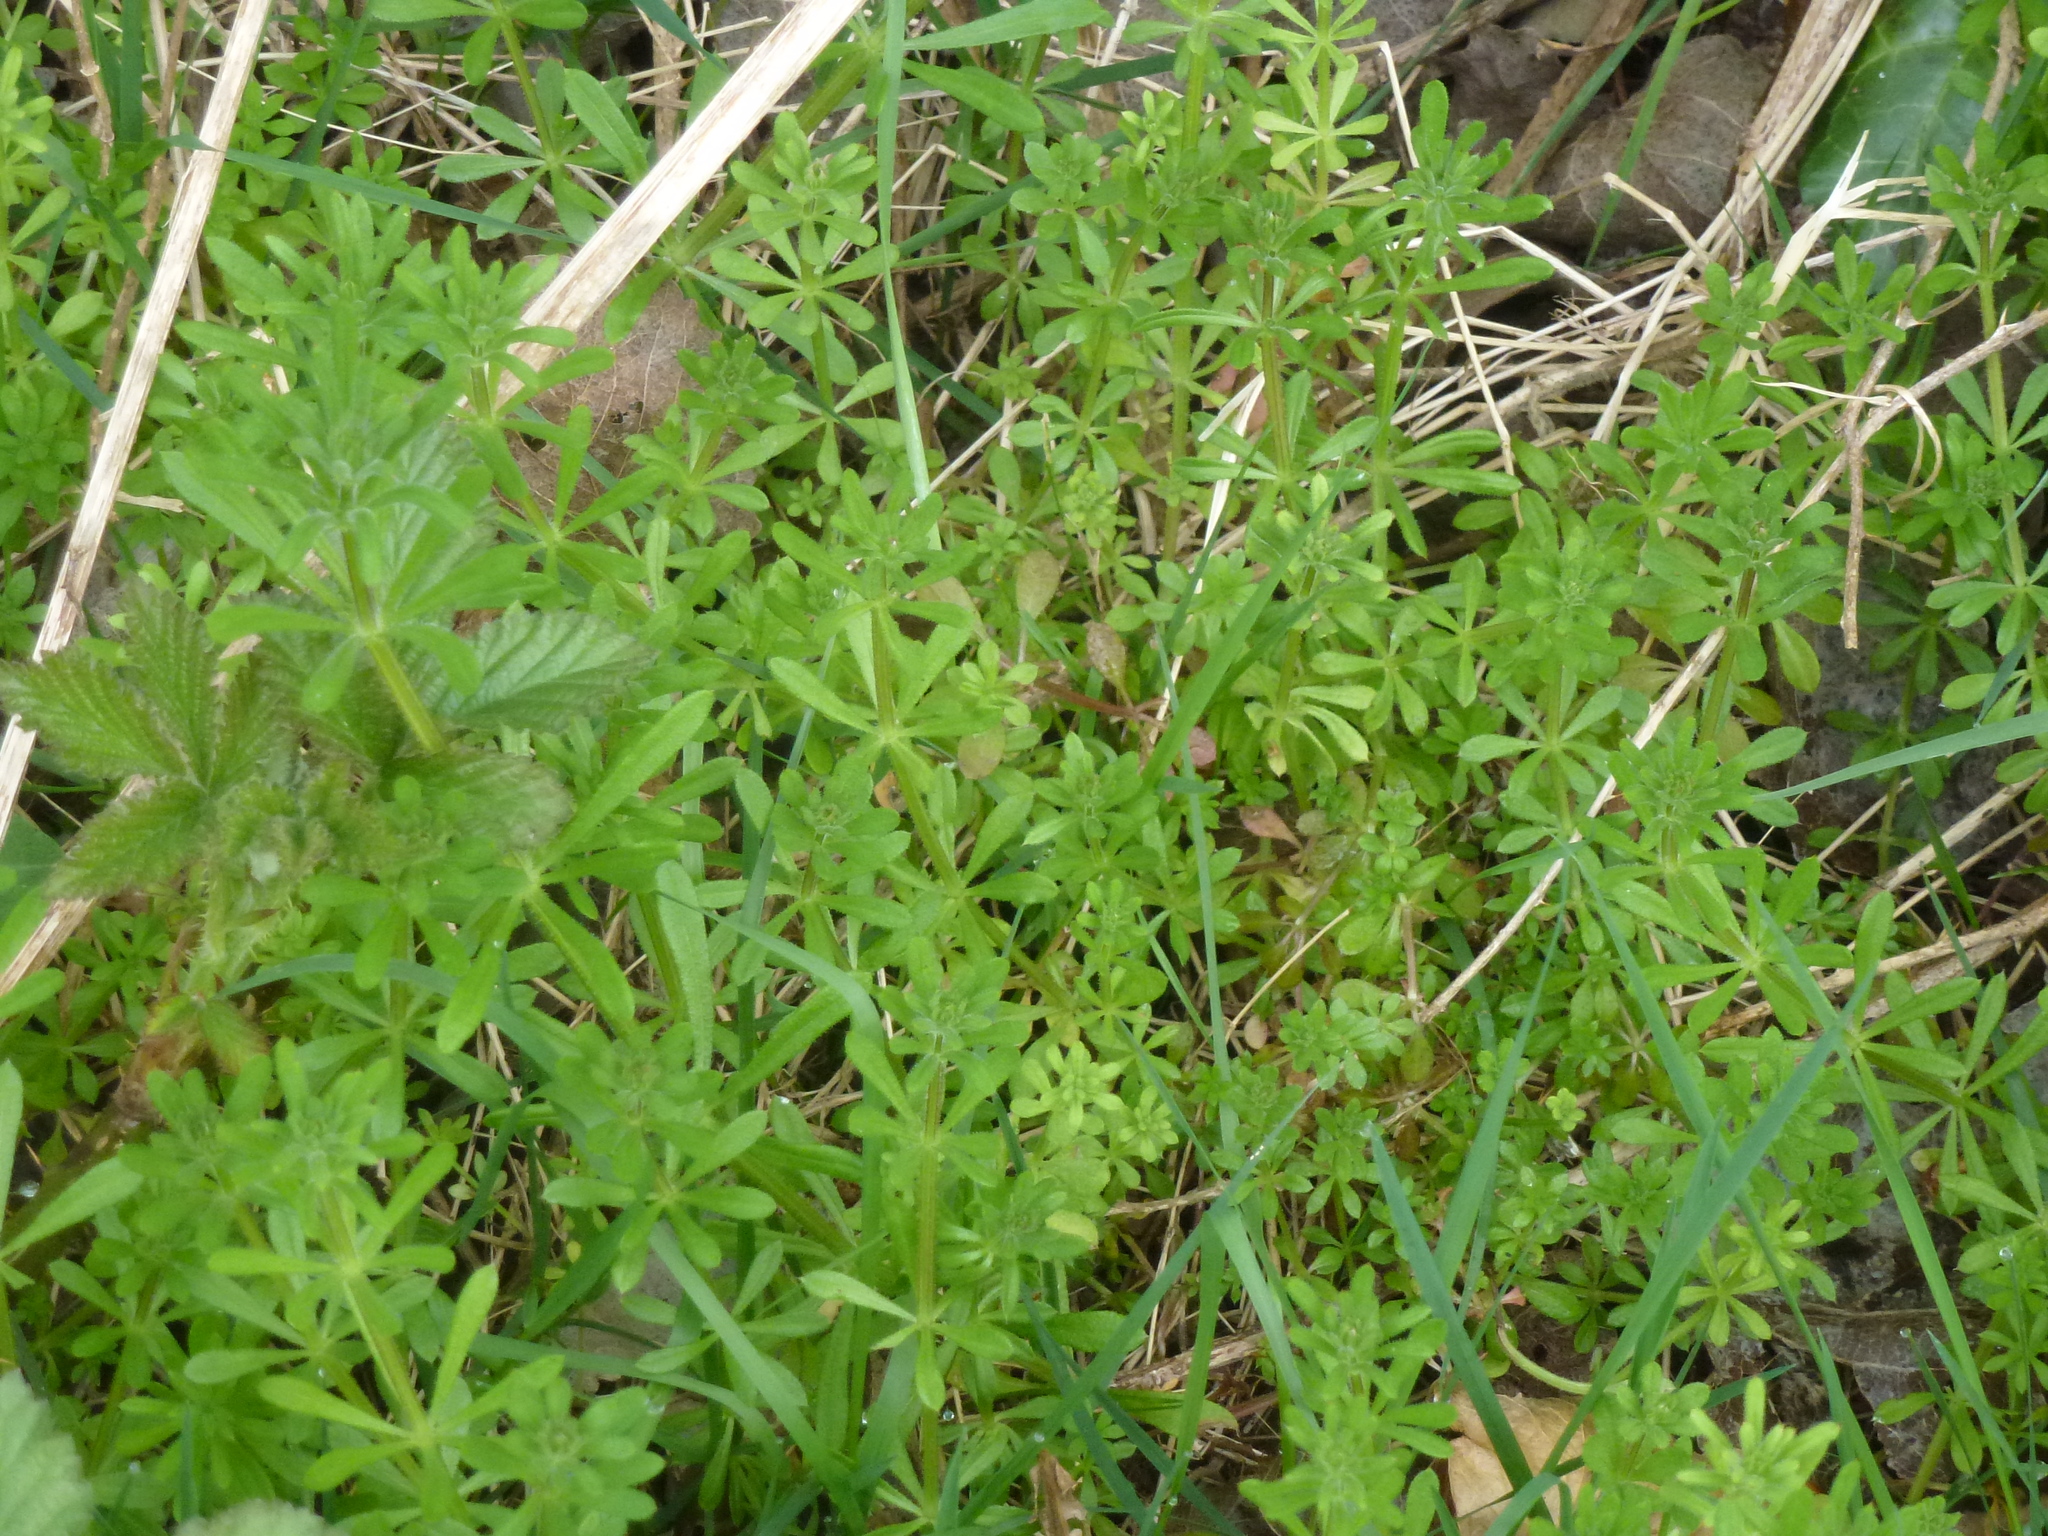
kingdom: Plantae
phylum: Tracheophyta
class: Magnoliopsida
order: Gentianales
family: Rubiaceae
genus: Galium
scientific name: Galium aparine
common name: Cleavers
